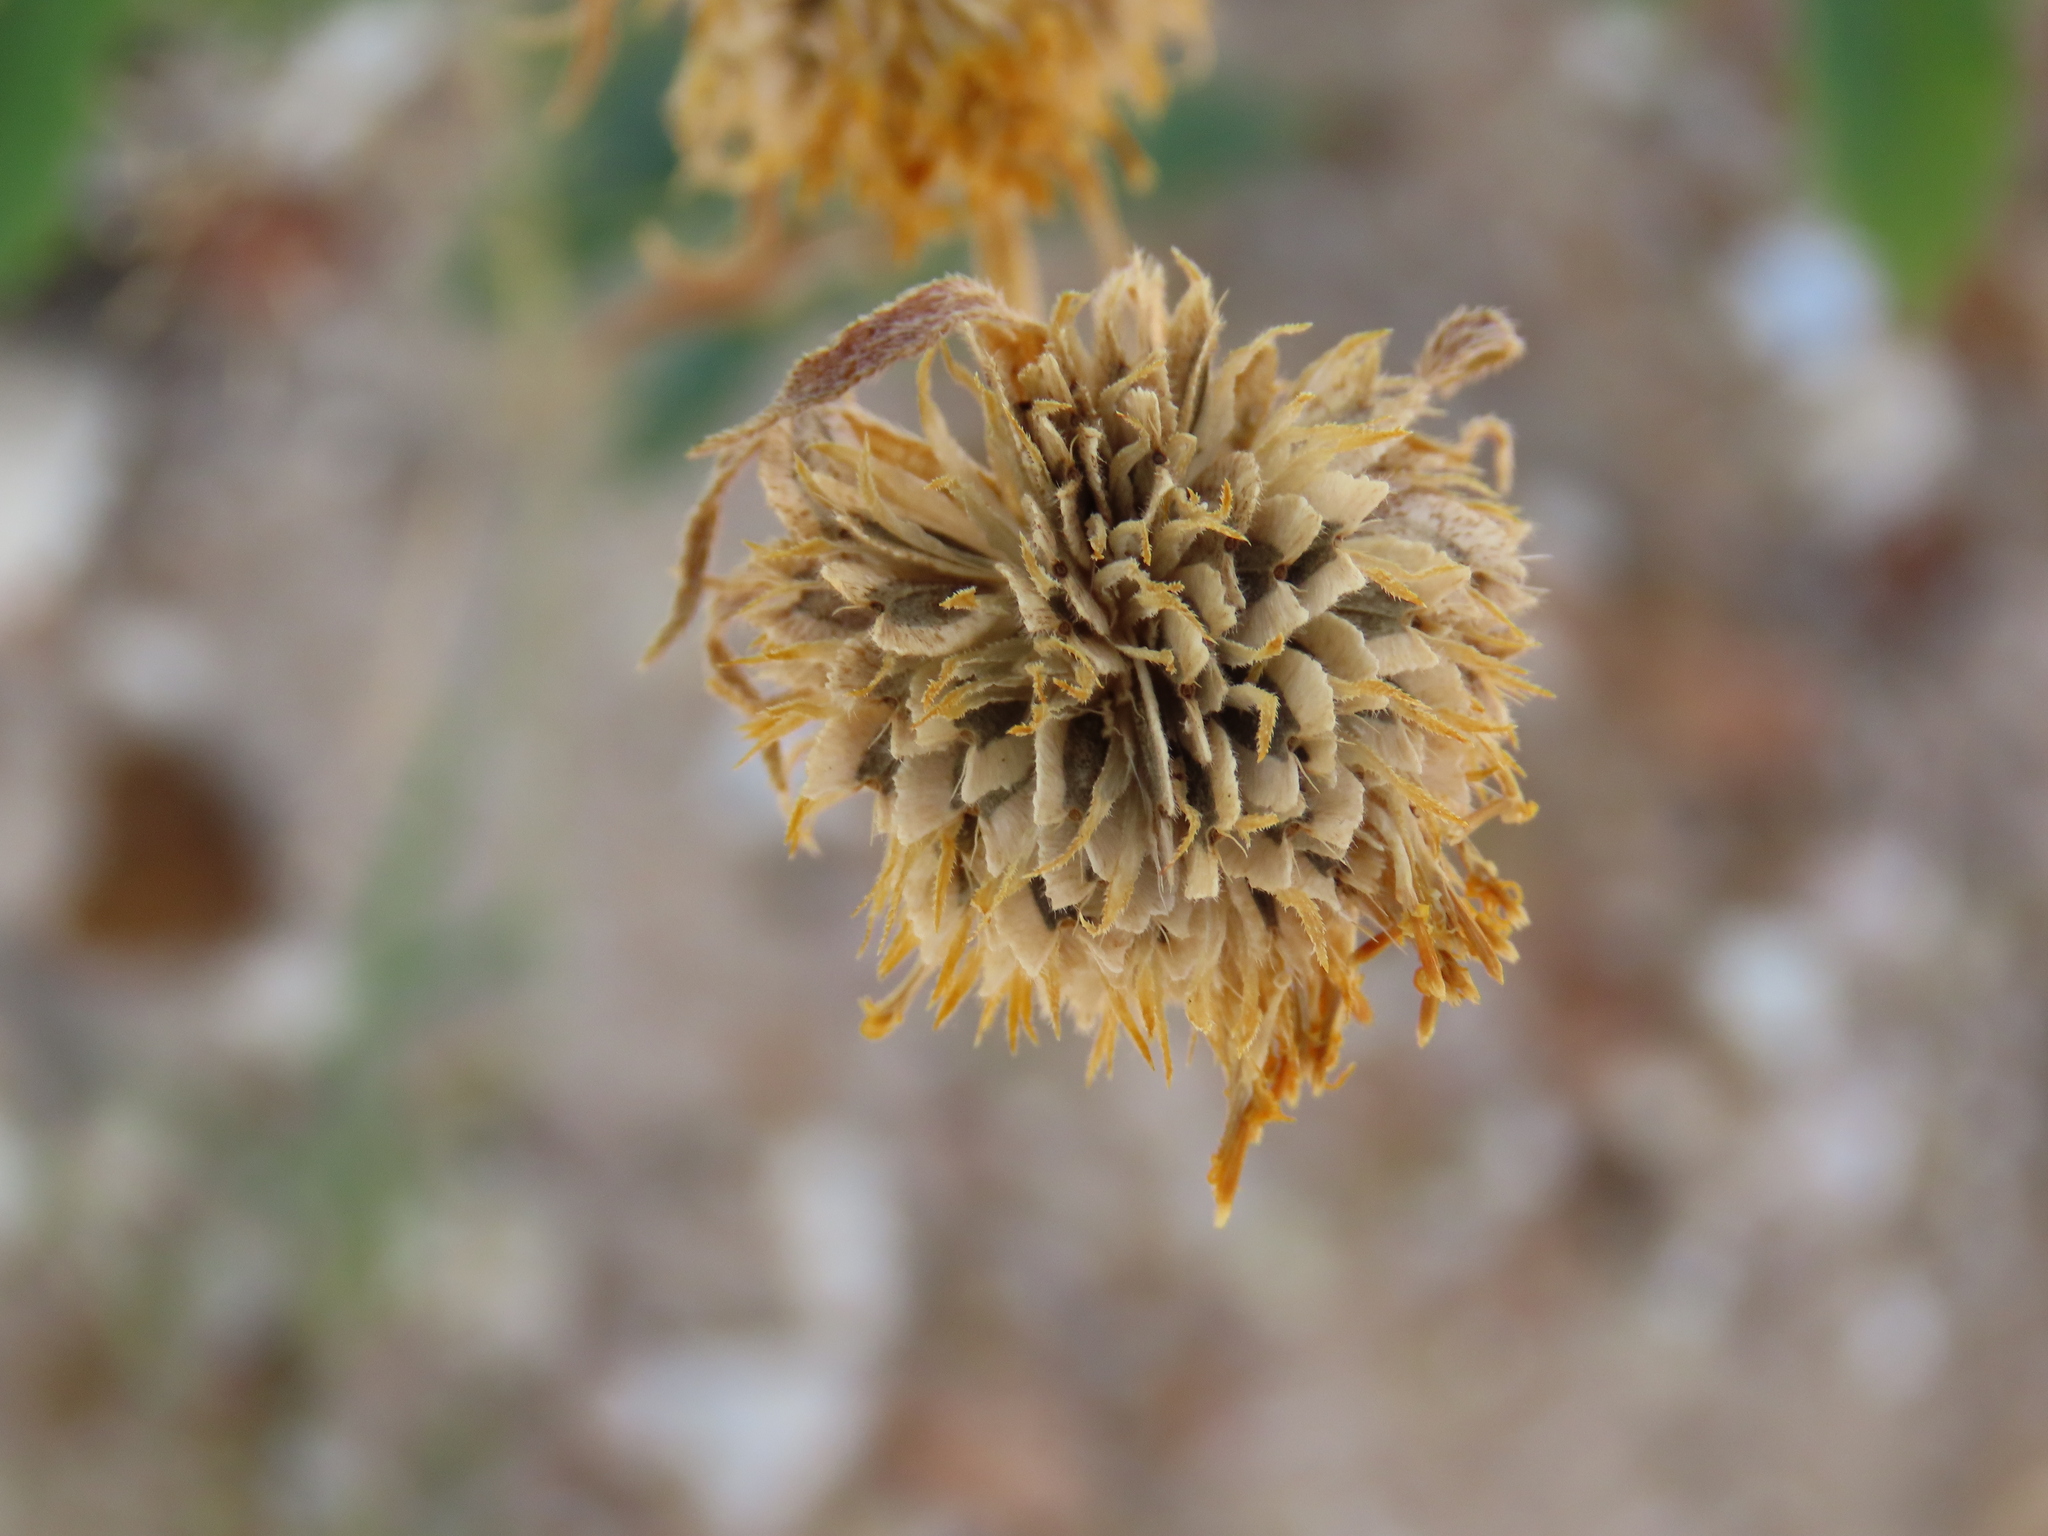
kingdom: Plantae
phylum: Tracheophyta
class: Magnoliopsida
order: Asterales
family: Asteraceae
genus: Verbesina
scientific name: Verbesina encelioides
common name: Golden crownbeard
